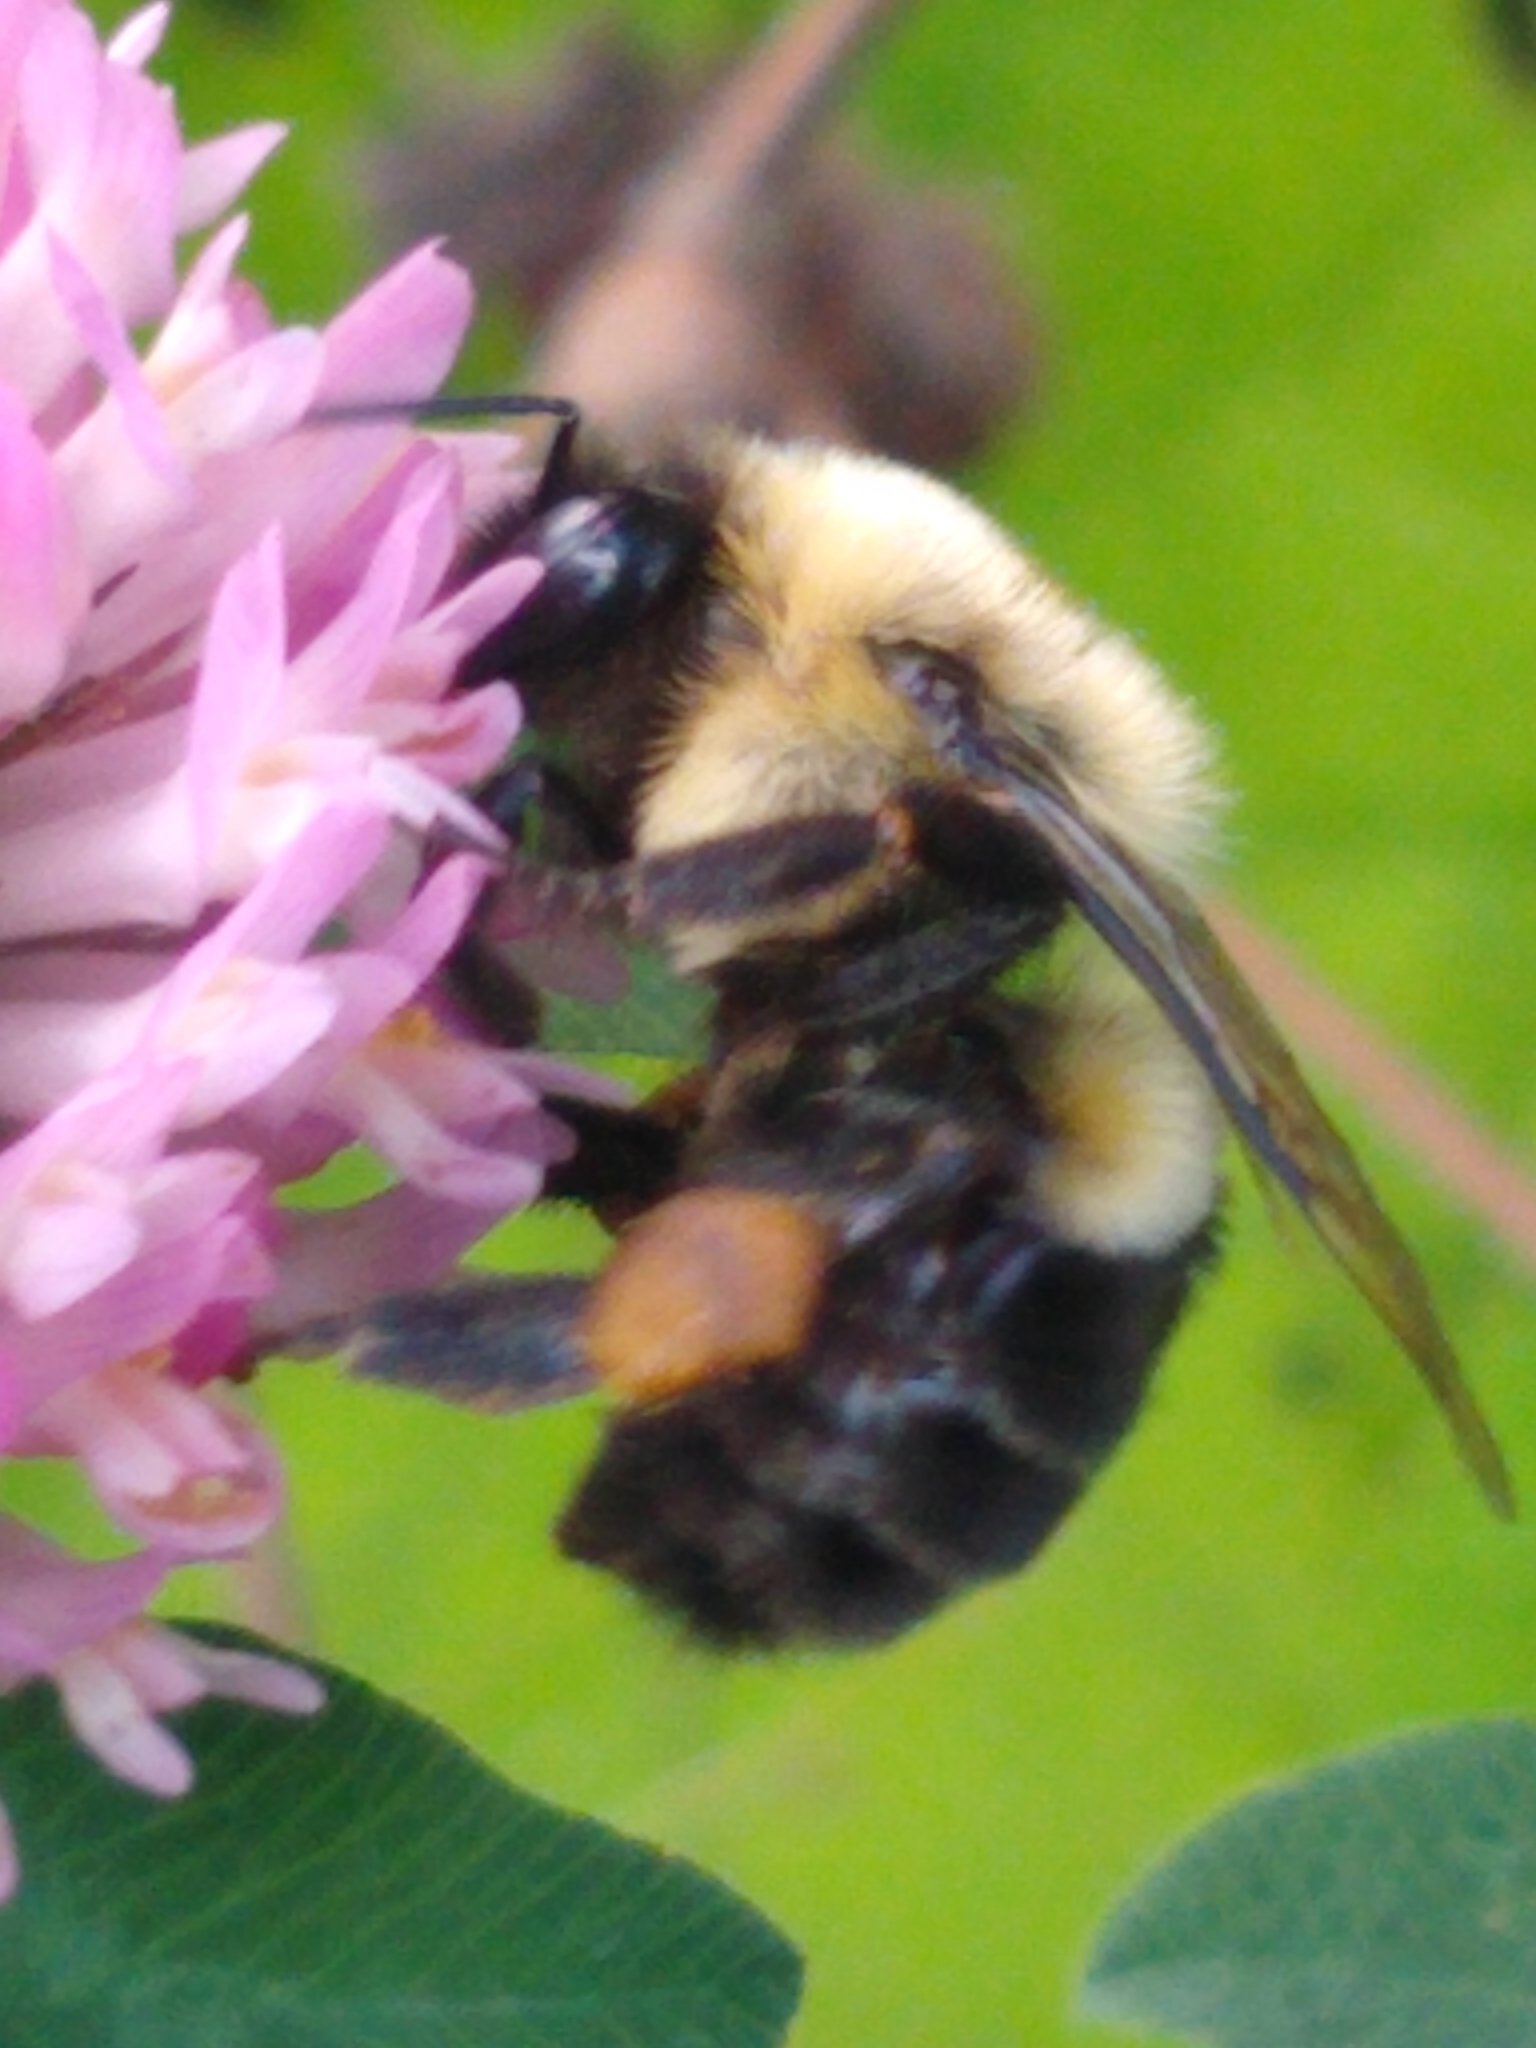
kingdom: Animalia
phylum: Arthropoda
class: Insecta
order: Hymenoptera
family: Apidae
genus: Bombus
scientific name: Bombus impatiens
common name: Common eastern bumble bee
